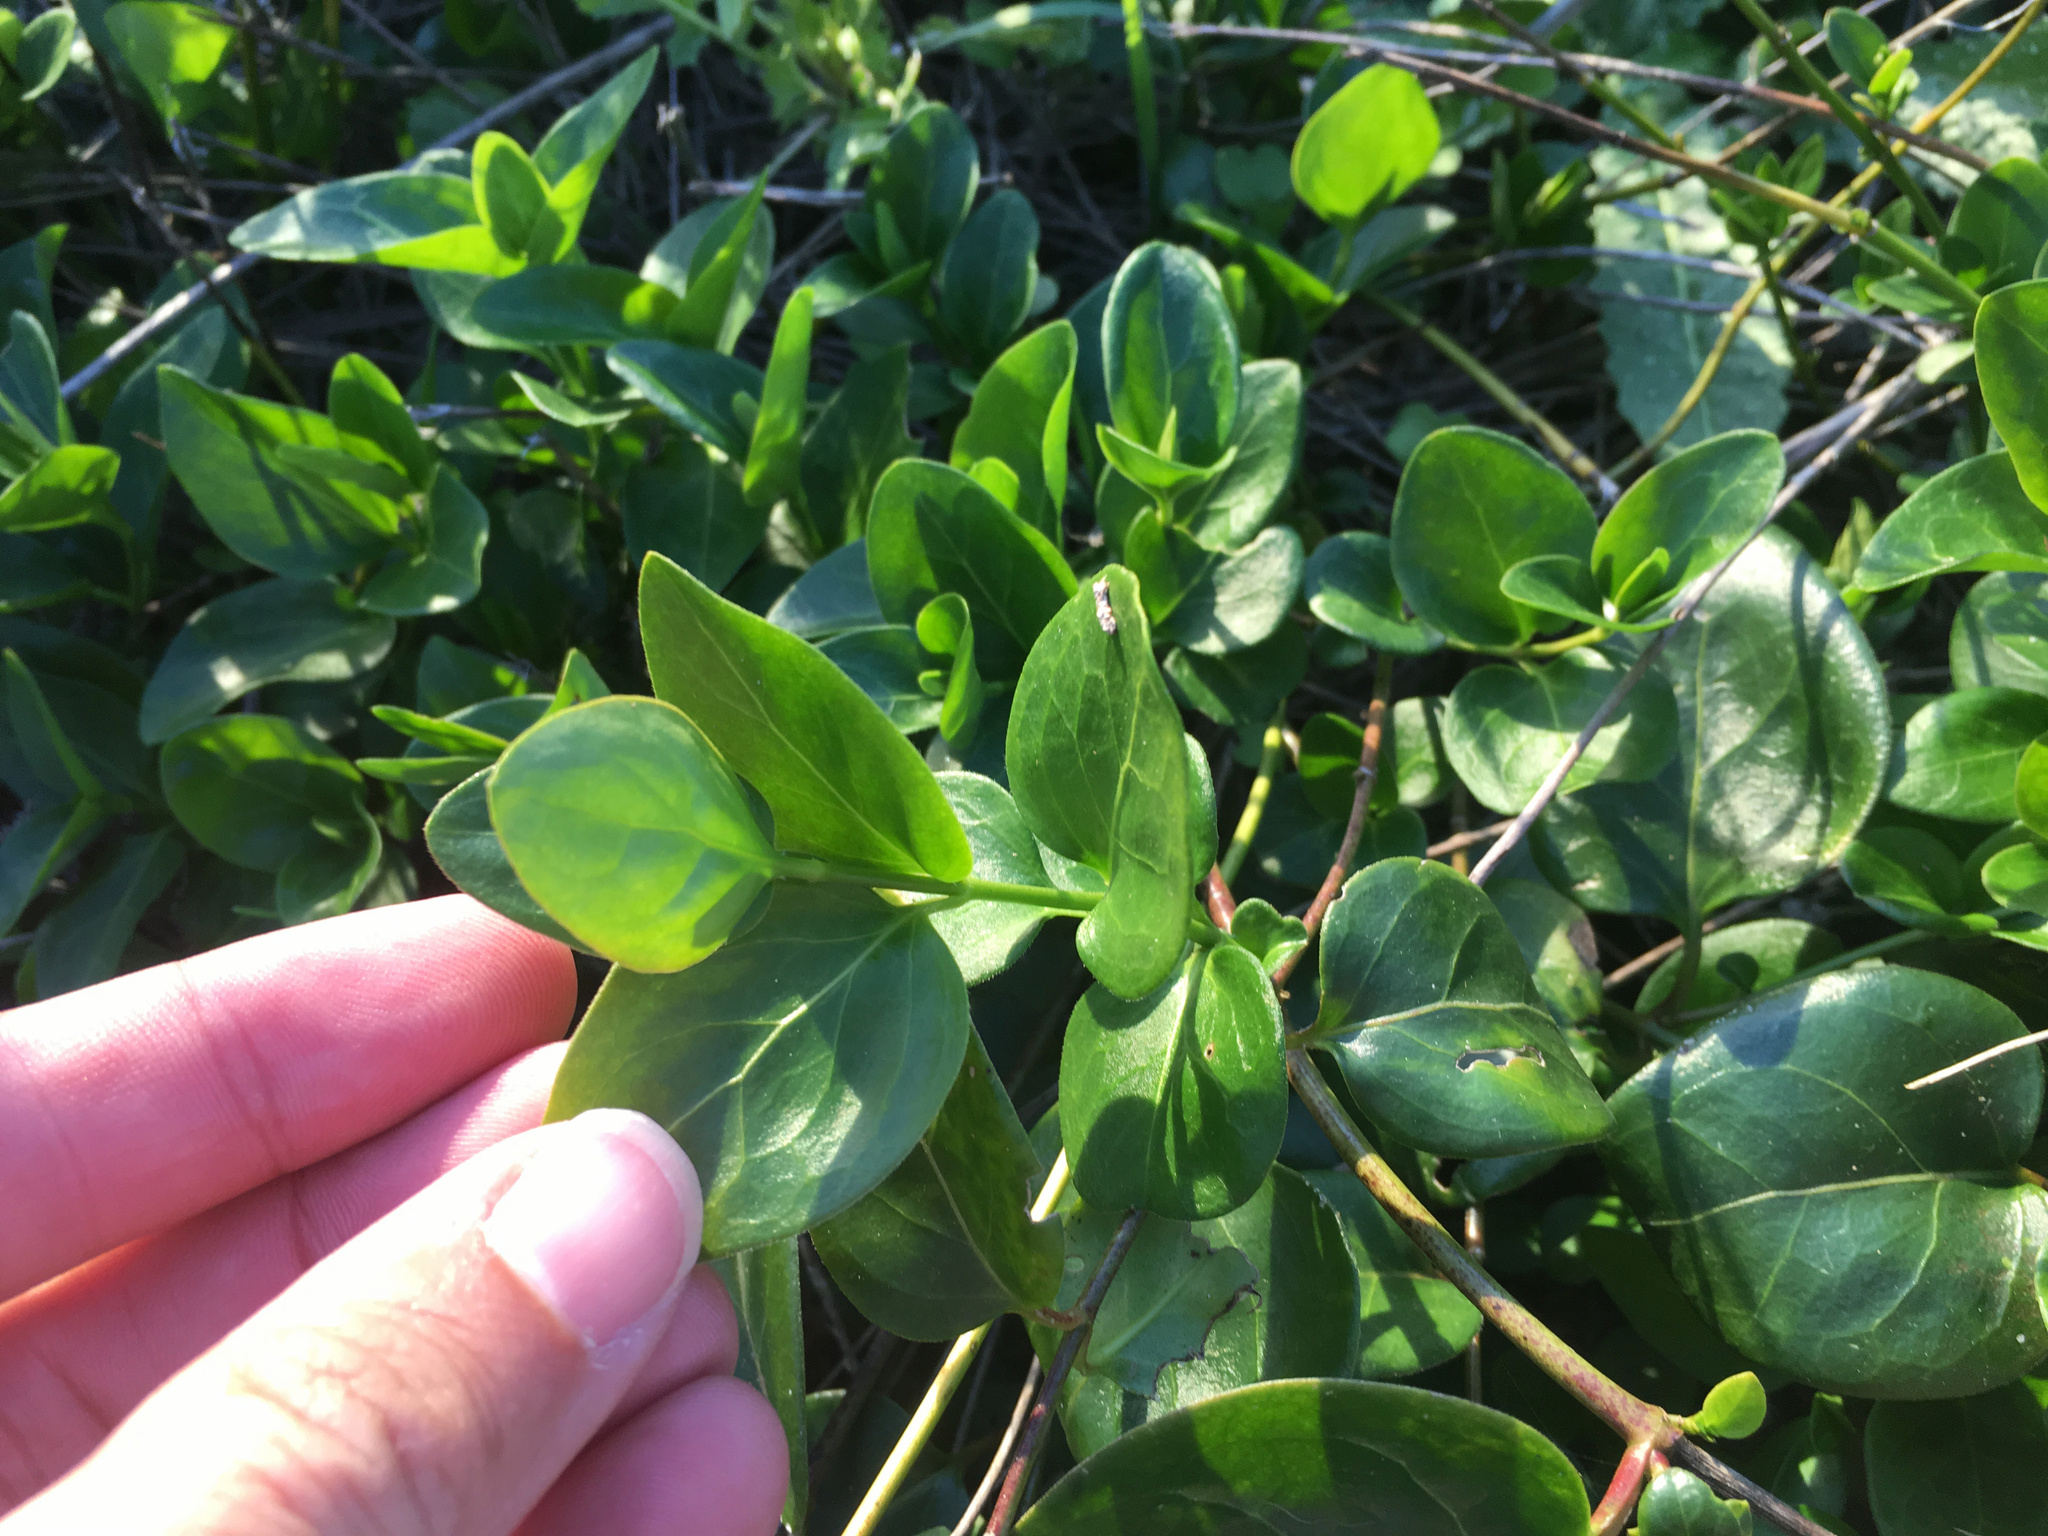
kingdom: Plantae
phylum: Tracheophyta
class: Magnoliopsida
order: Gentianales
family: Apocynaceae
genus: Vinca
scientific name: Vinca major
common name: Greater periwinkle
